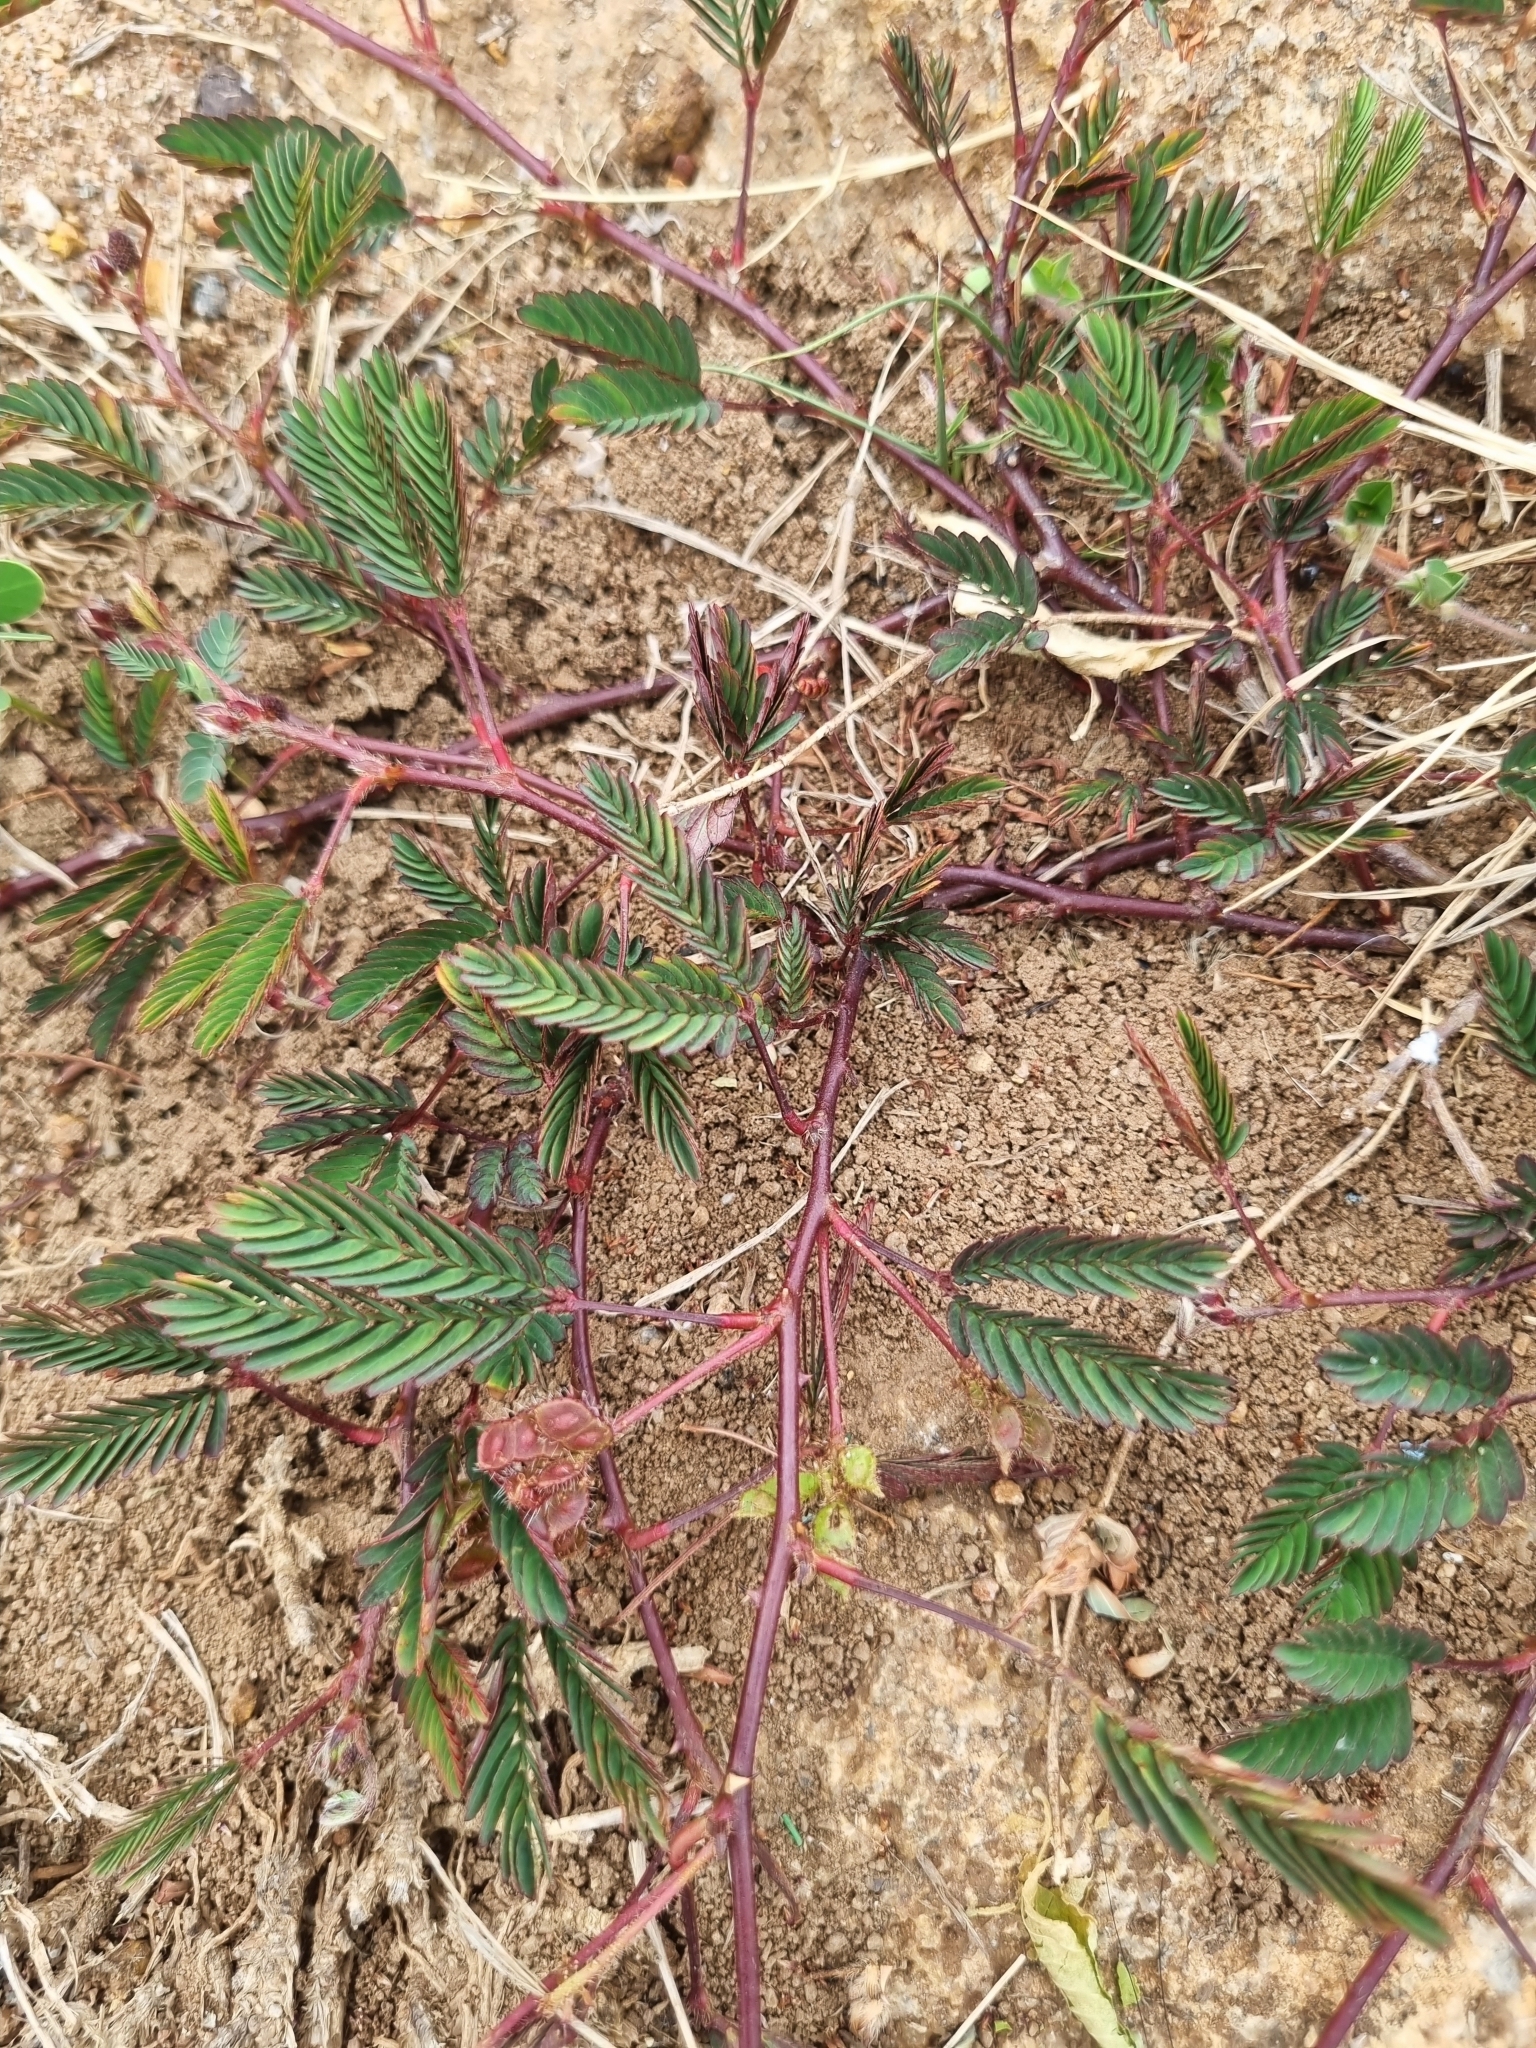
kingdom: Plantae
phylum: Tracheophyta
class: Magnoliopsida
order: Fabales
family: Fabaceae
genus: Mimosa
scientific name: Mimosa pudica
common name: Sensitive plant
